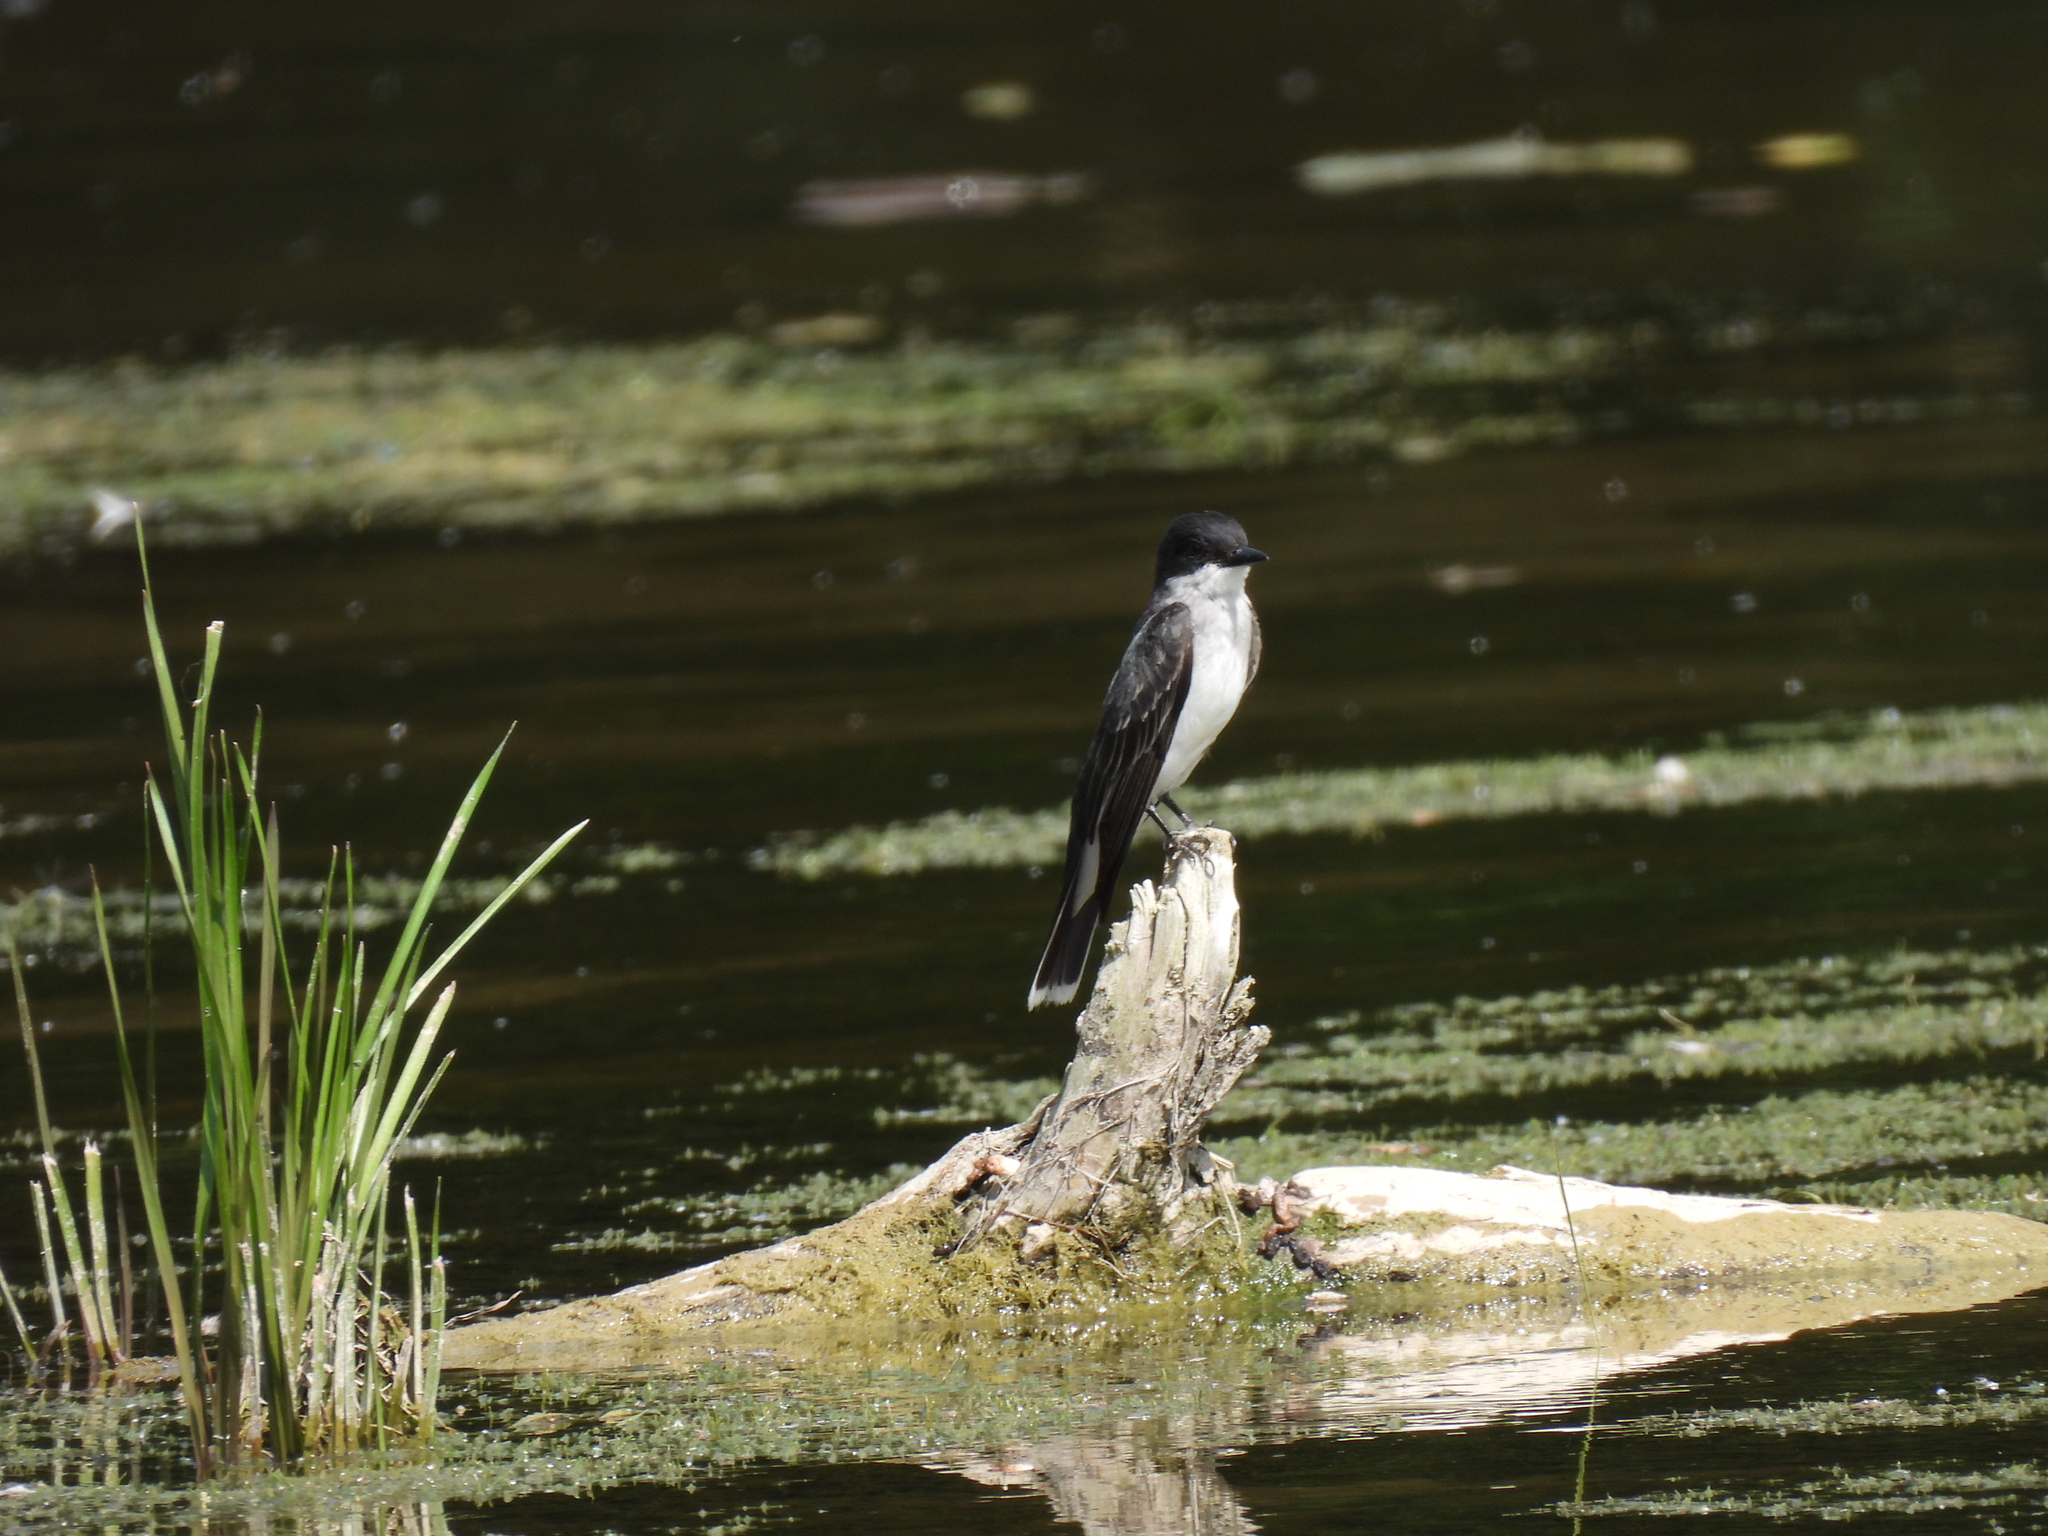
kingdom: Animalia
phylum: Chordata
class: Aves
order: Passeriformes
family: Tyrannidae
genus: Tyrannus
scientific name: Tyrannus tyrannus
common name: Eastern kingbird
